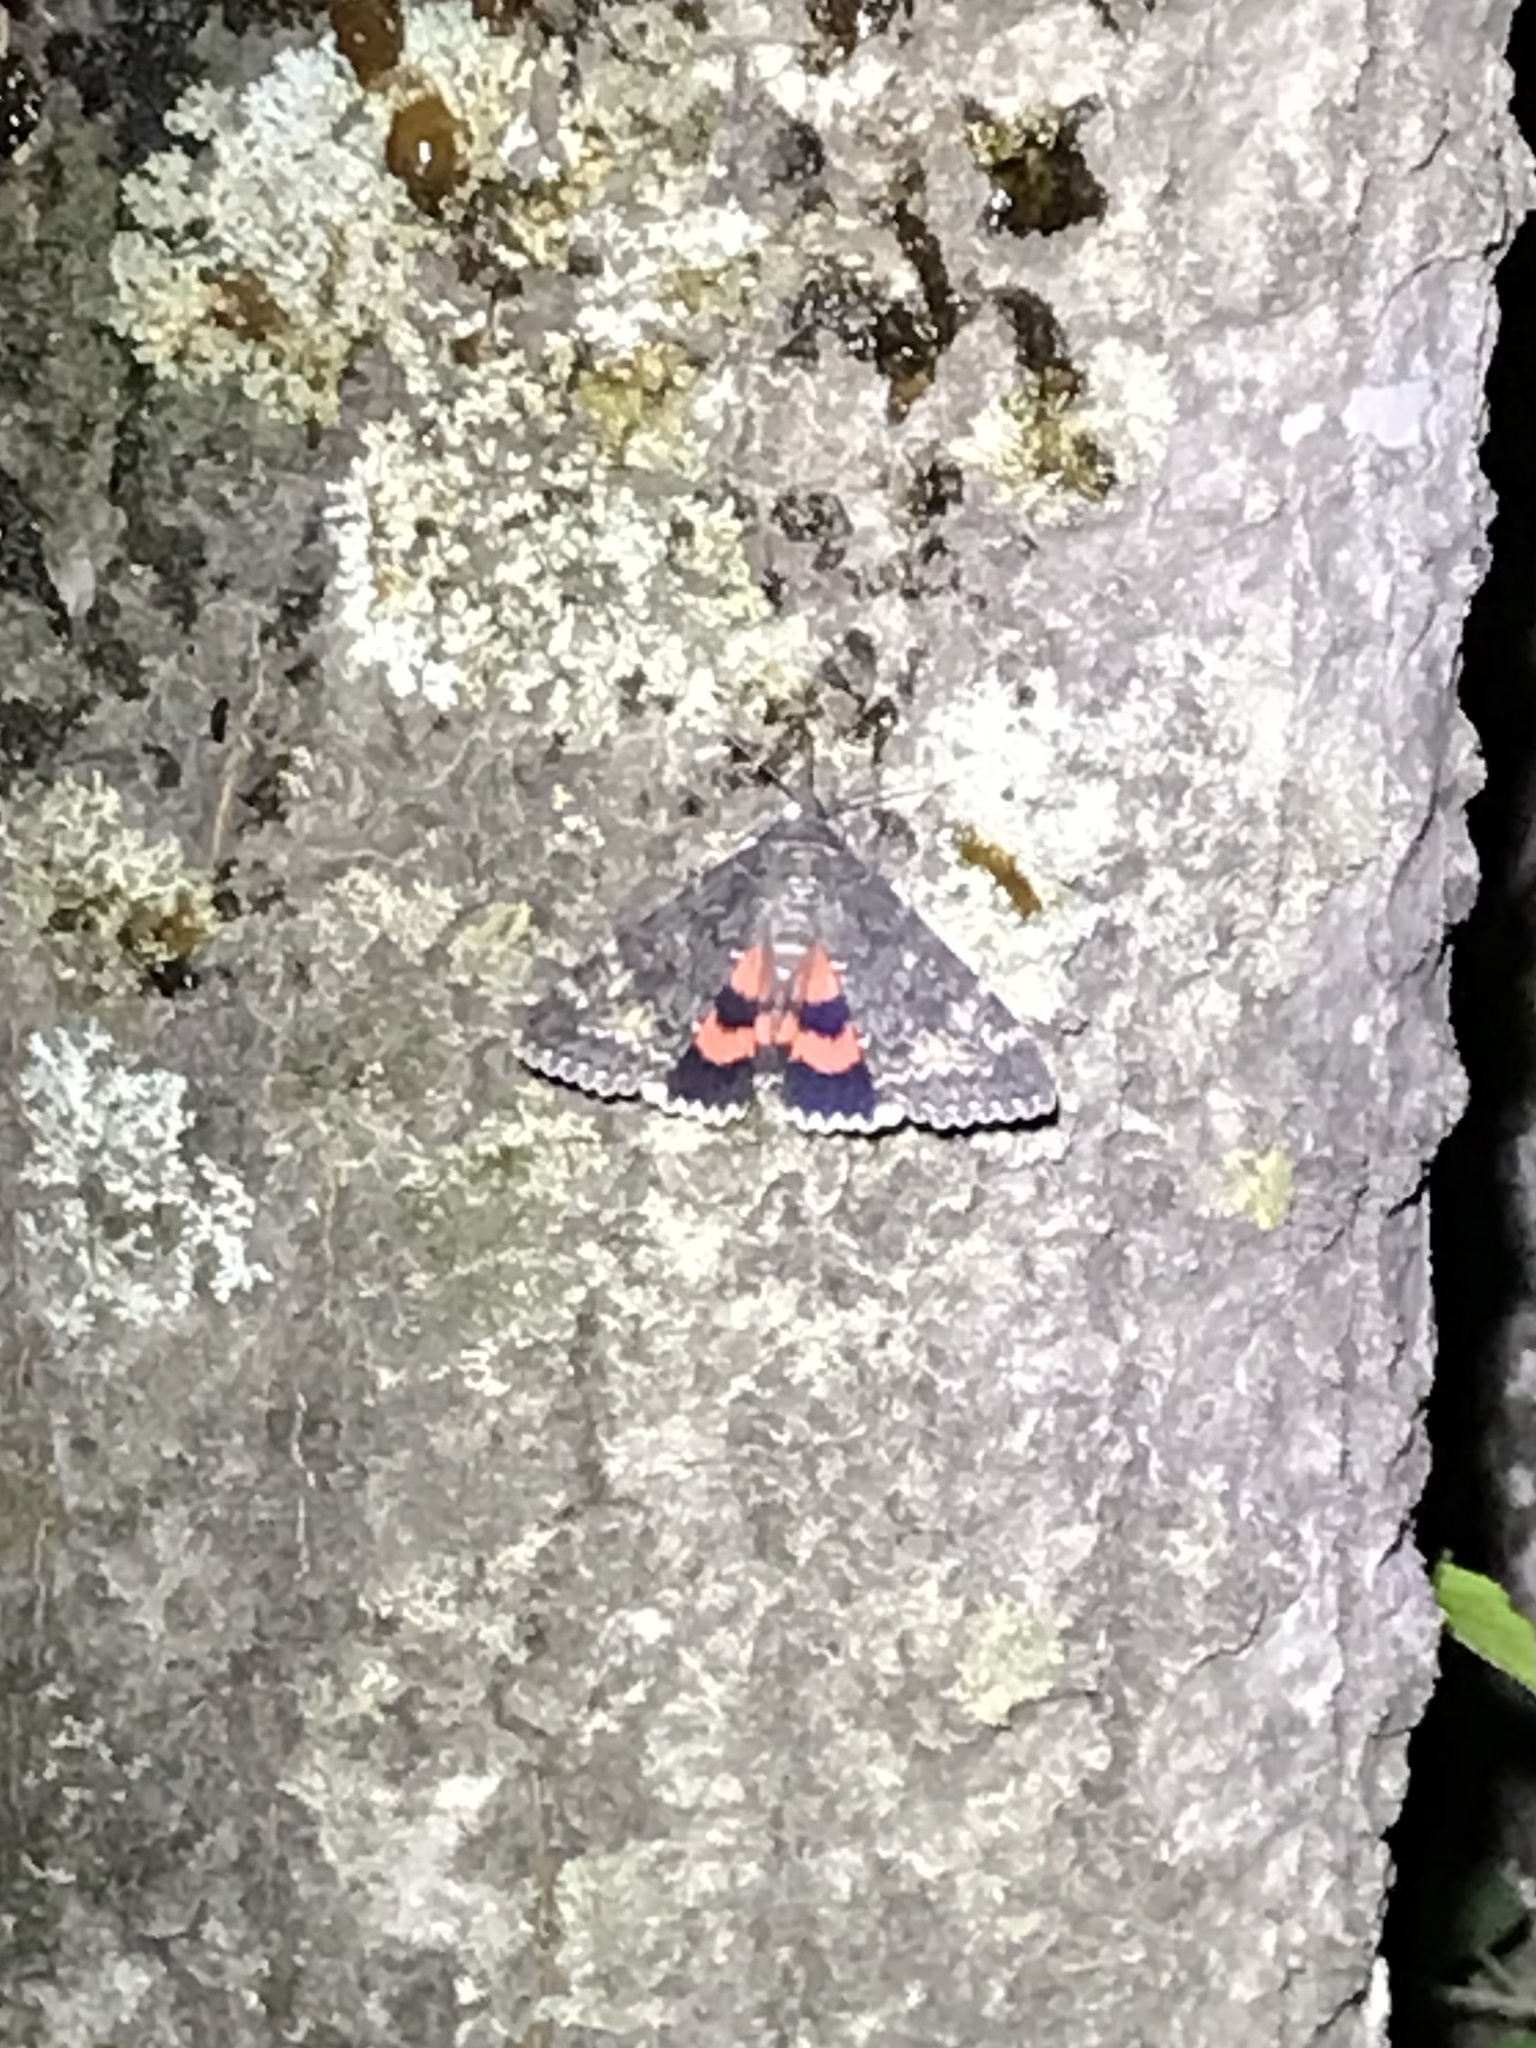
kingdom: Animalia
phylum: Arthropoda
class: Insecta
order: Lepidoptera
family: Erebidae
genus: Catocala
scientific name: Catocala briseis
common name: Briseis underwing
